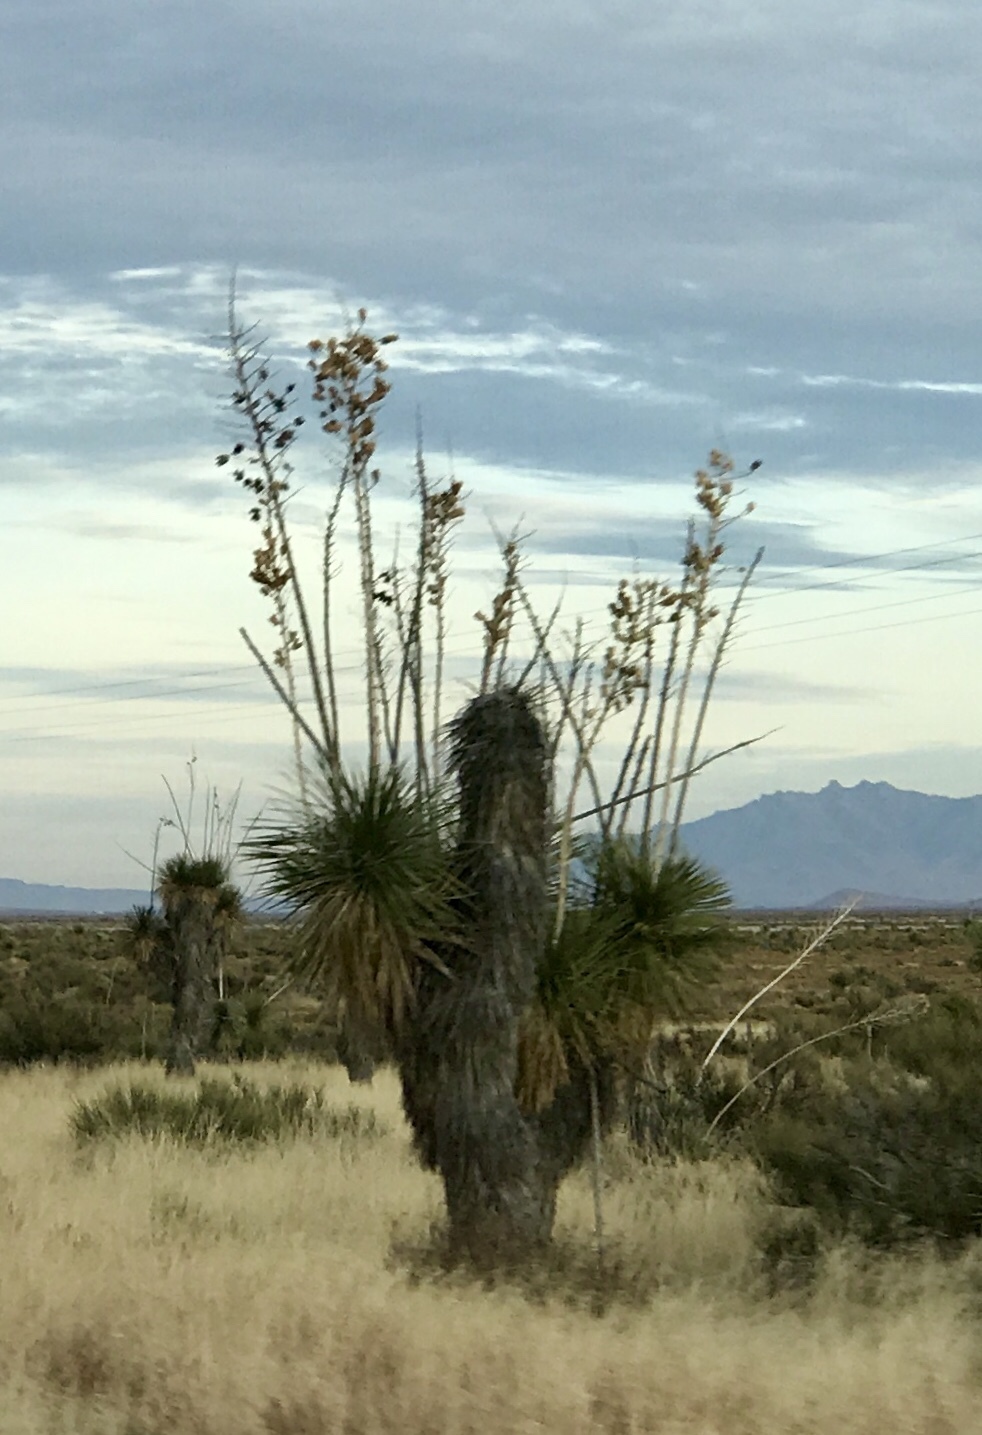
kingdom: Plantae
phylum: Tracheophyta
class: Liliopsida
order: Asparagales
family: Asparagaceae
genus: Yucca
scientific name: Yucca elata
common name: Palmella
